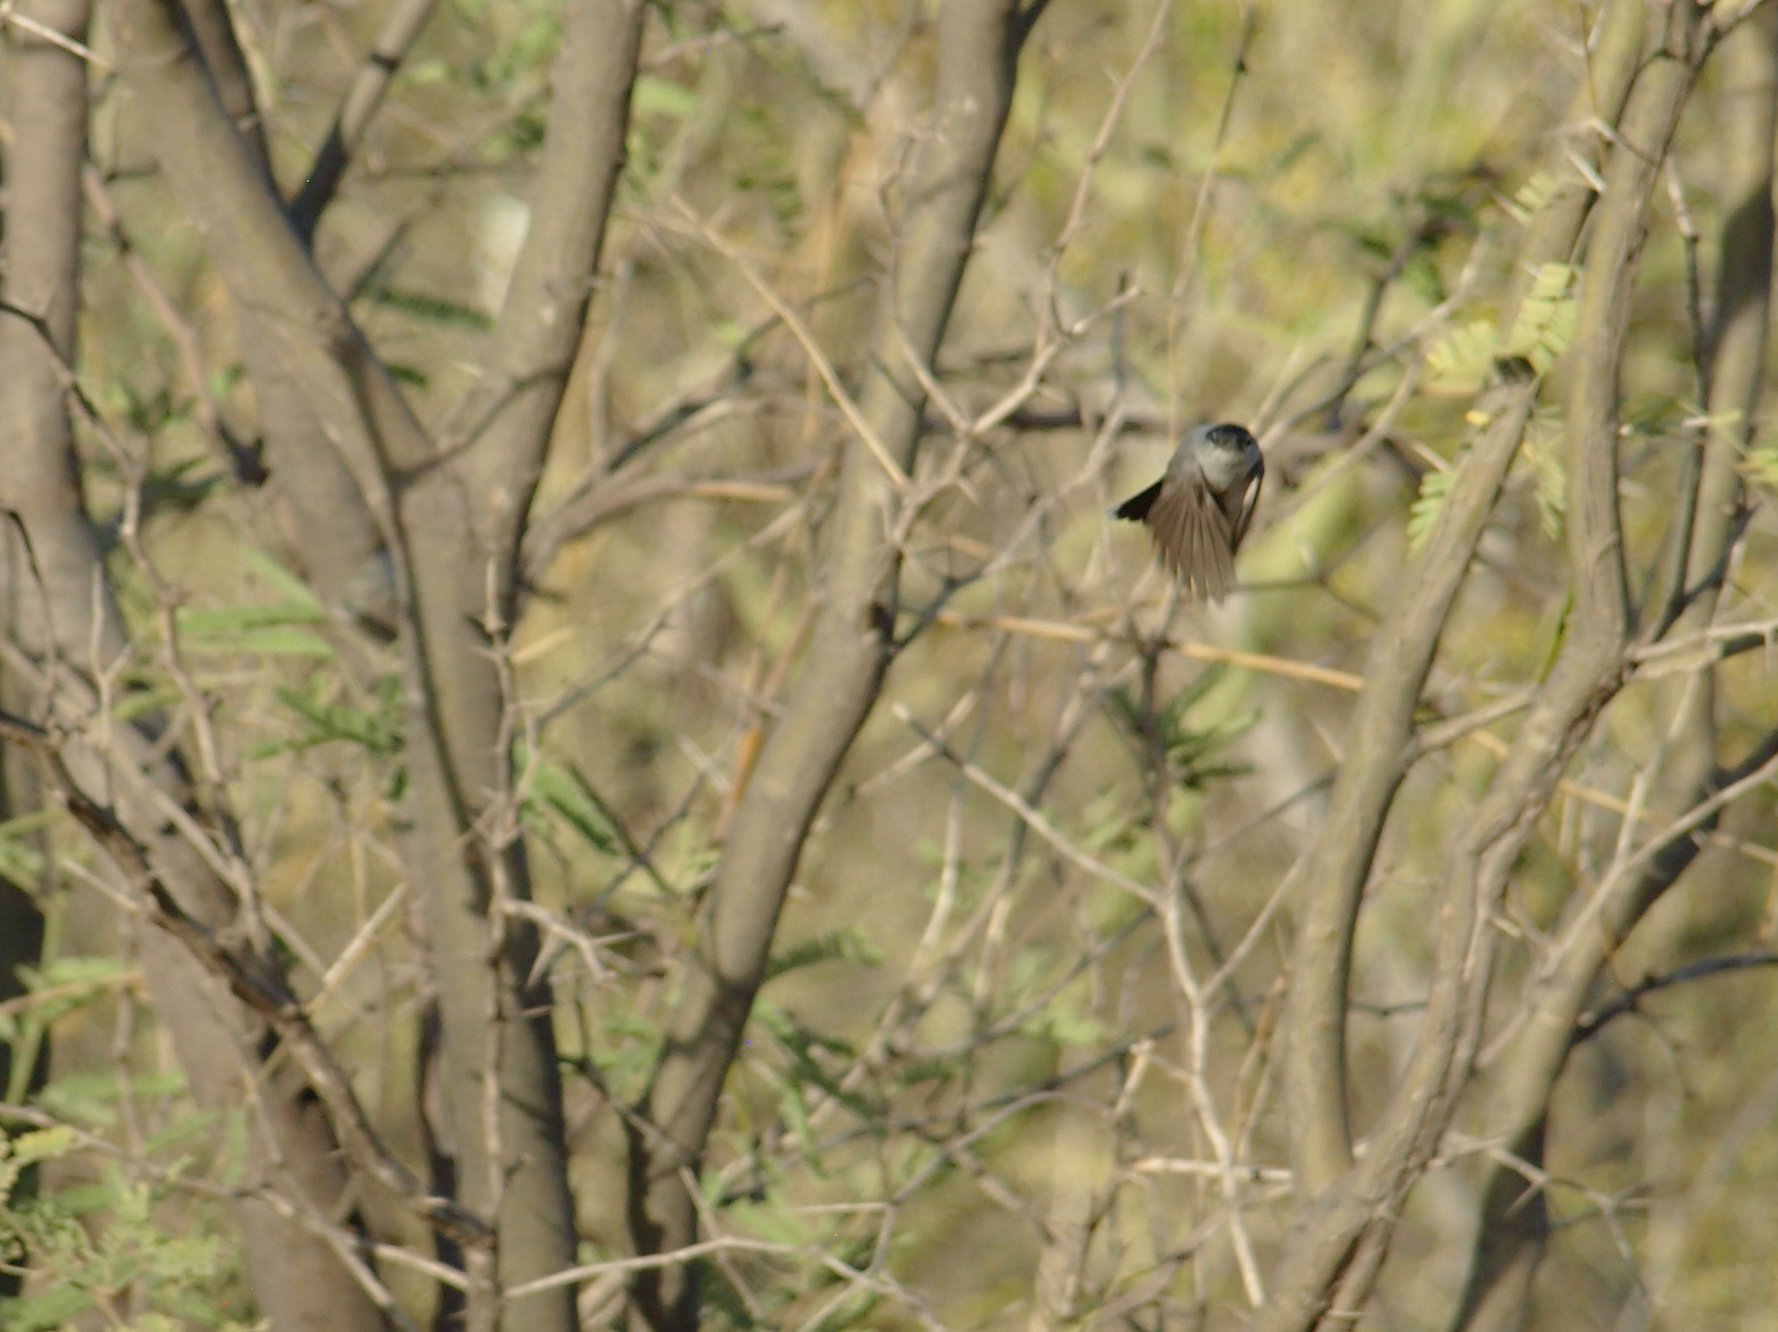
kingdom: Animalia
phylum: Chordata
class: Aves
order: Passeriformes
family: Polioptilidae
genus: Polioptila
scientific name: Polioptila melanura
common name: Black-tailed gnatcatcher
